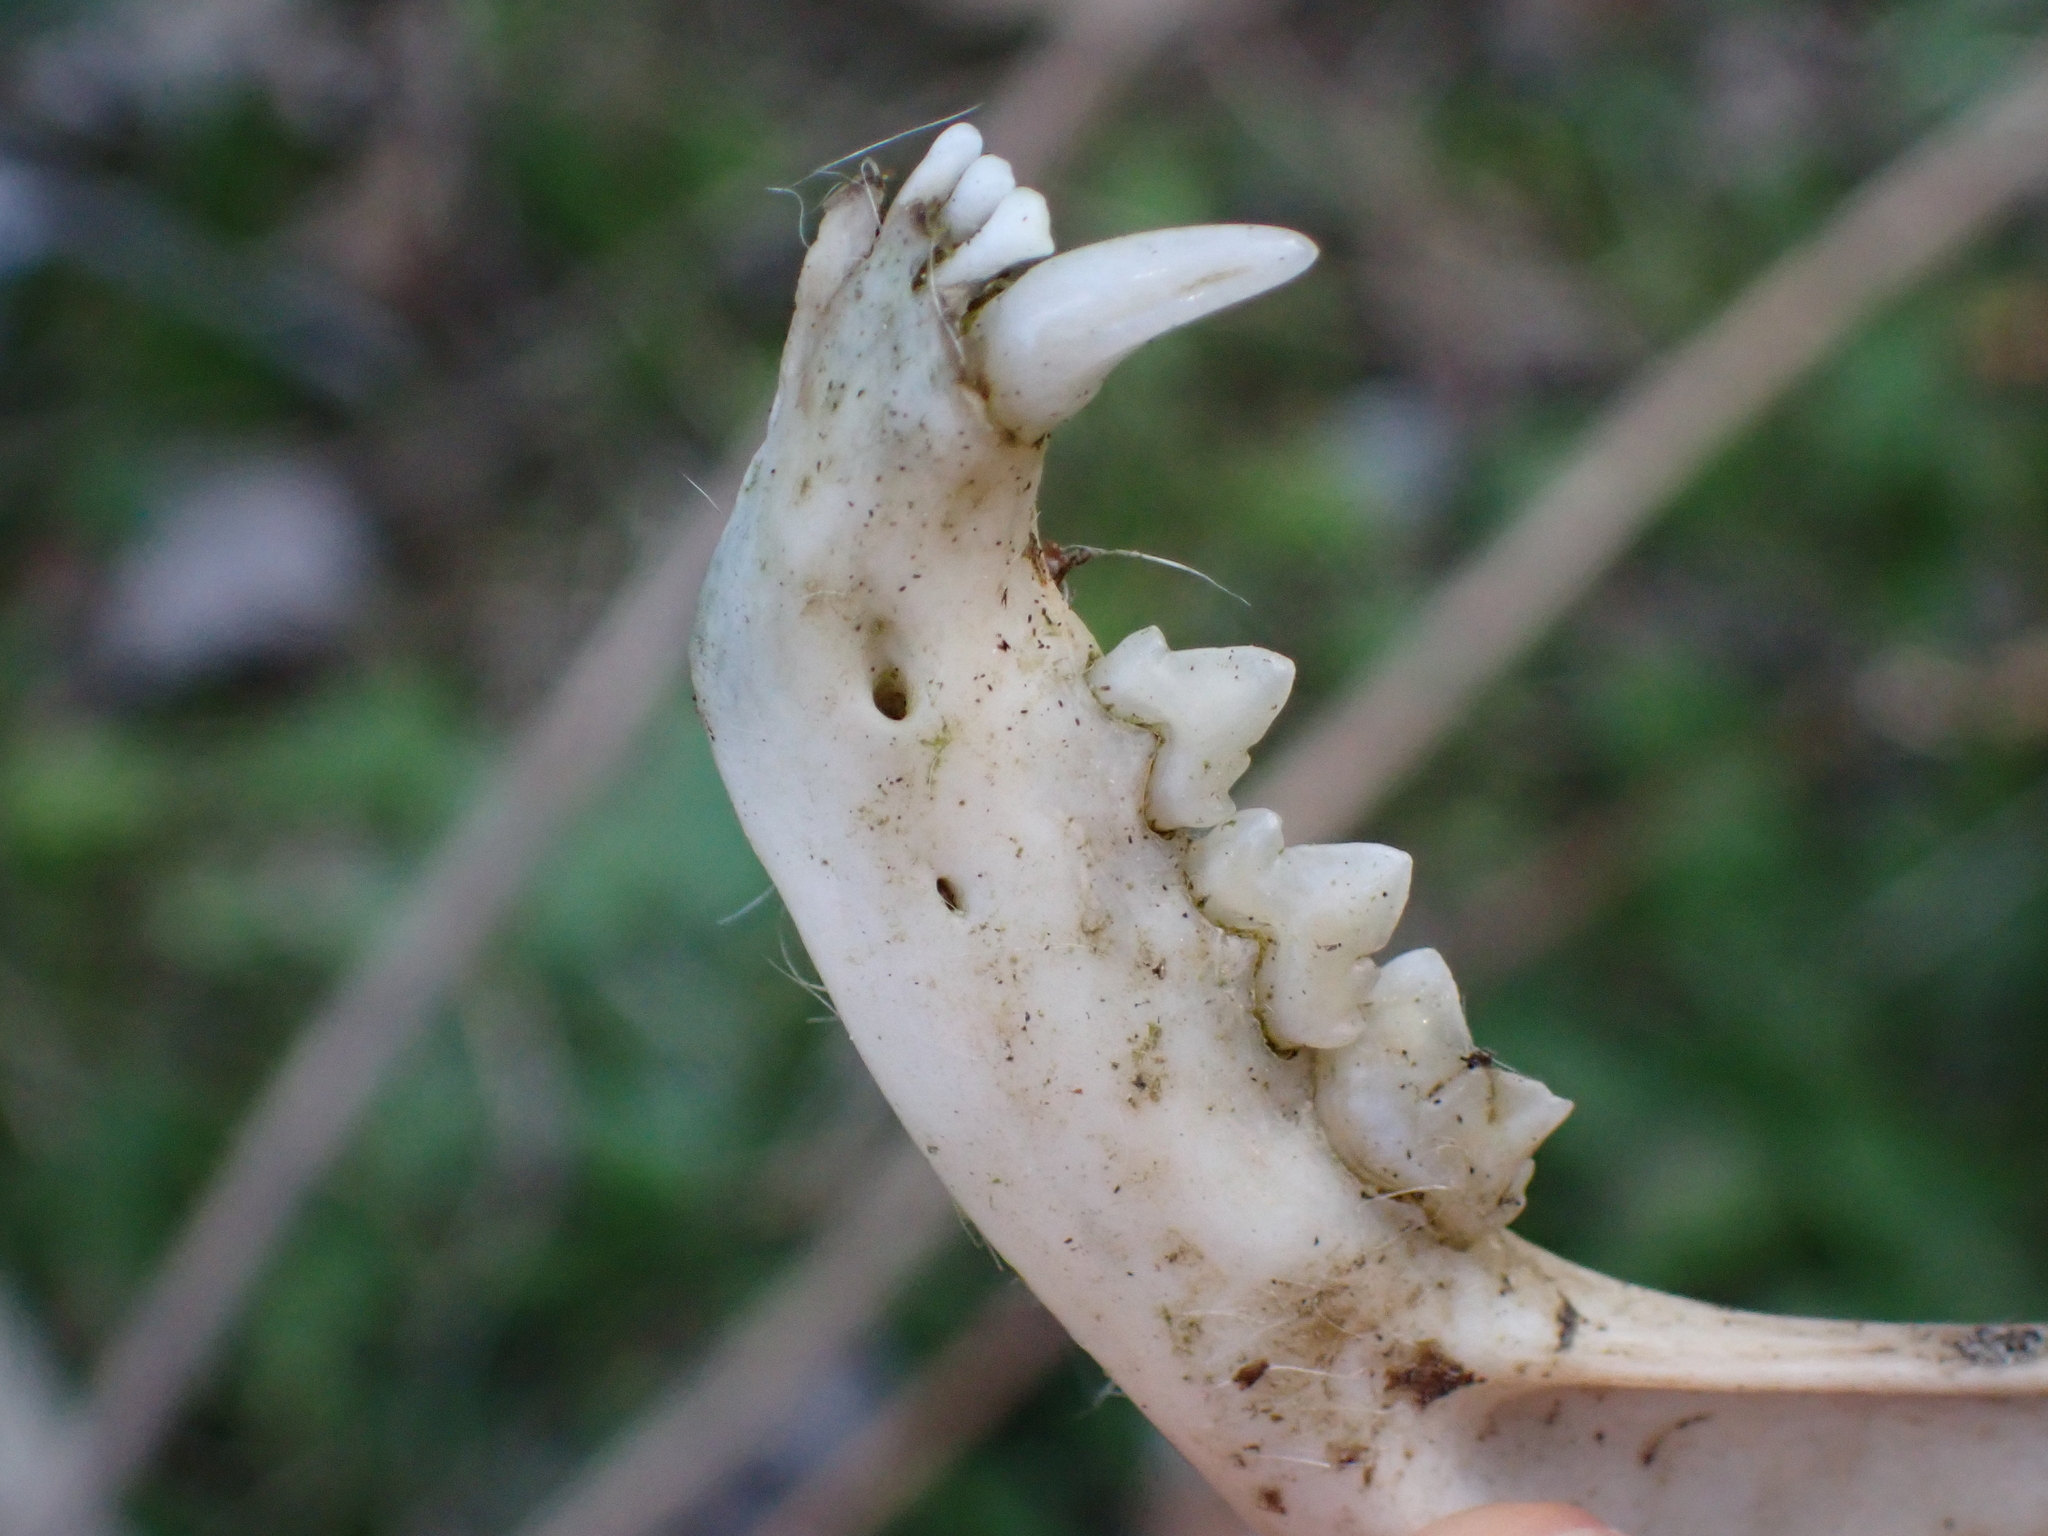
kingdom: Animalia
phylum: Chordata
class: Mammalia
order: Carnivora
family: Felidae
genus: Felis
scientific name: Felis catus
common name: Domestic cat
